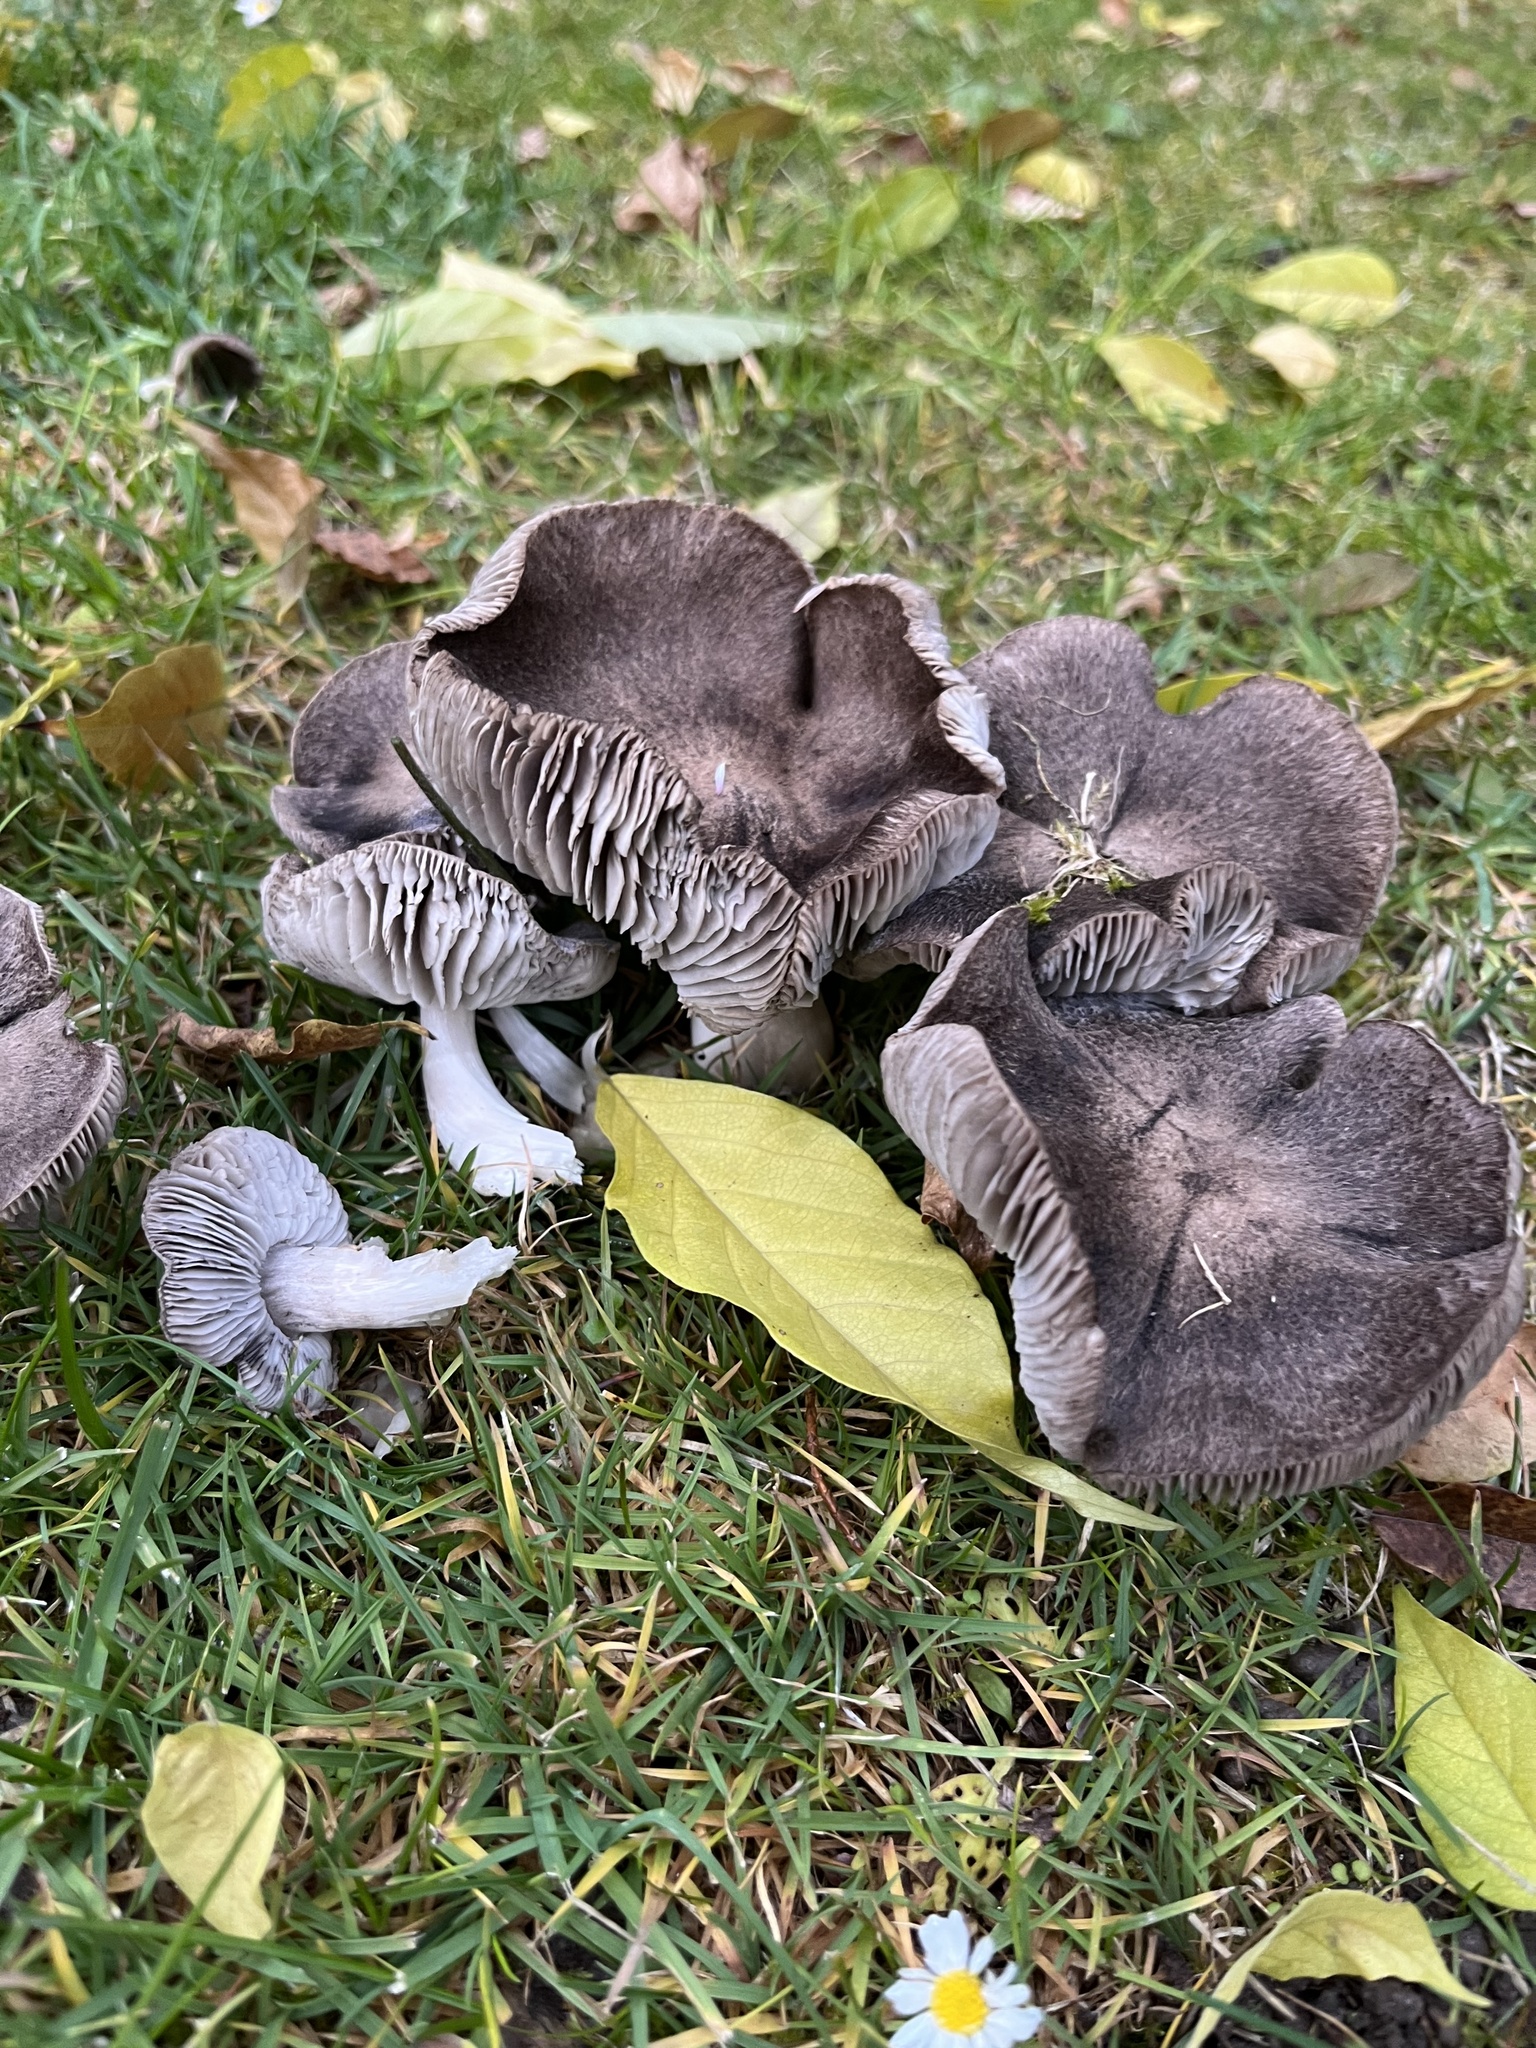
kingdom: Fungi
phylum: Basidiomycota
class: Agaricomycetes
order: Agaricales
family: Tricholomataceae
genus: Tricholoma
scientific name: Tricholoma terreum
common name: Grey knight
